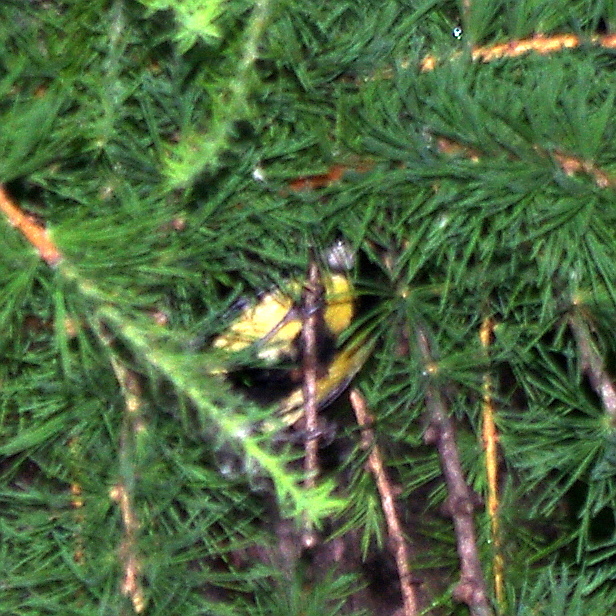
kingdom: Animalia
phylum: Chordata
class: Aves
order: Passeriformes
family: Paridae
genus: Parus
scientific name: Parus major
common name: Great tit
